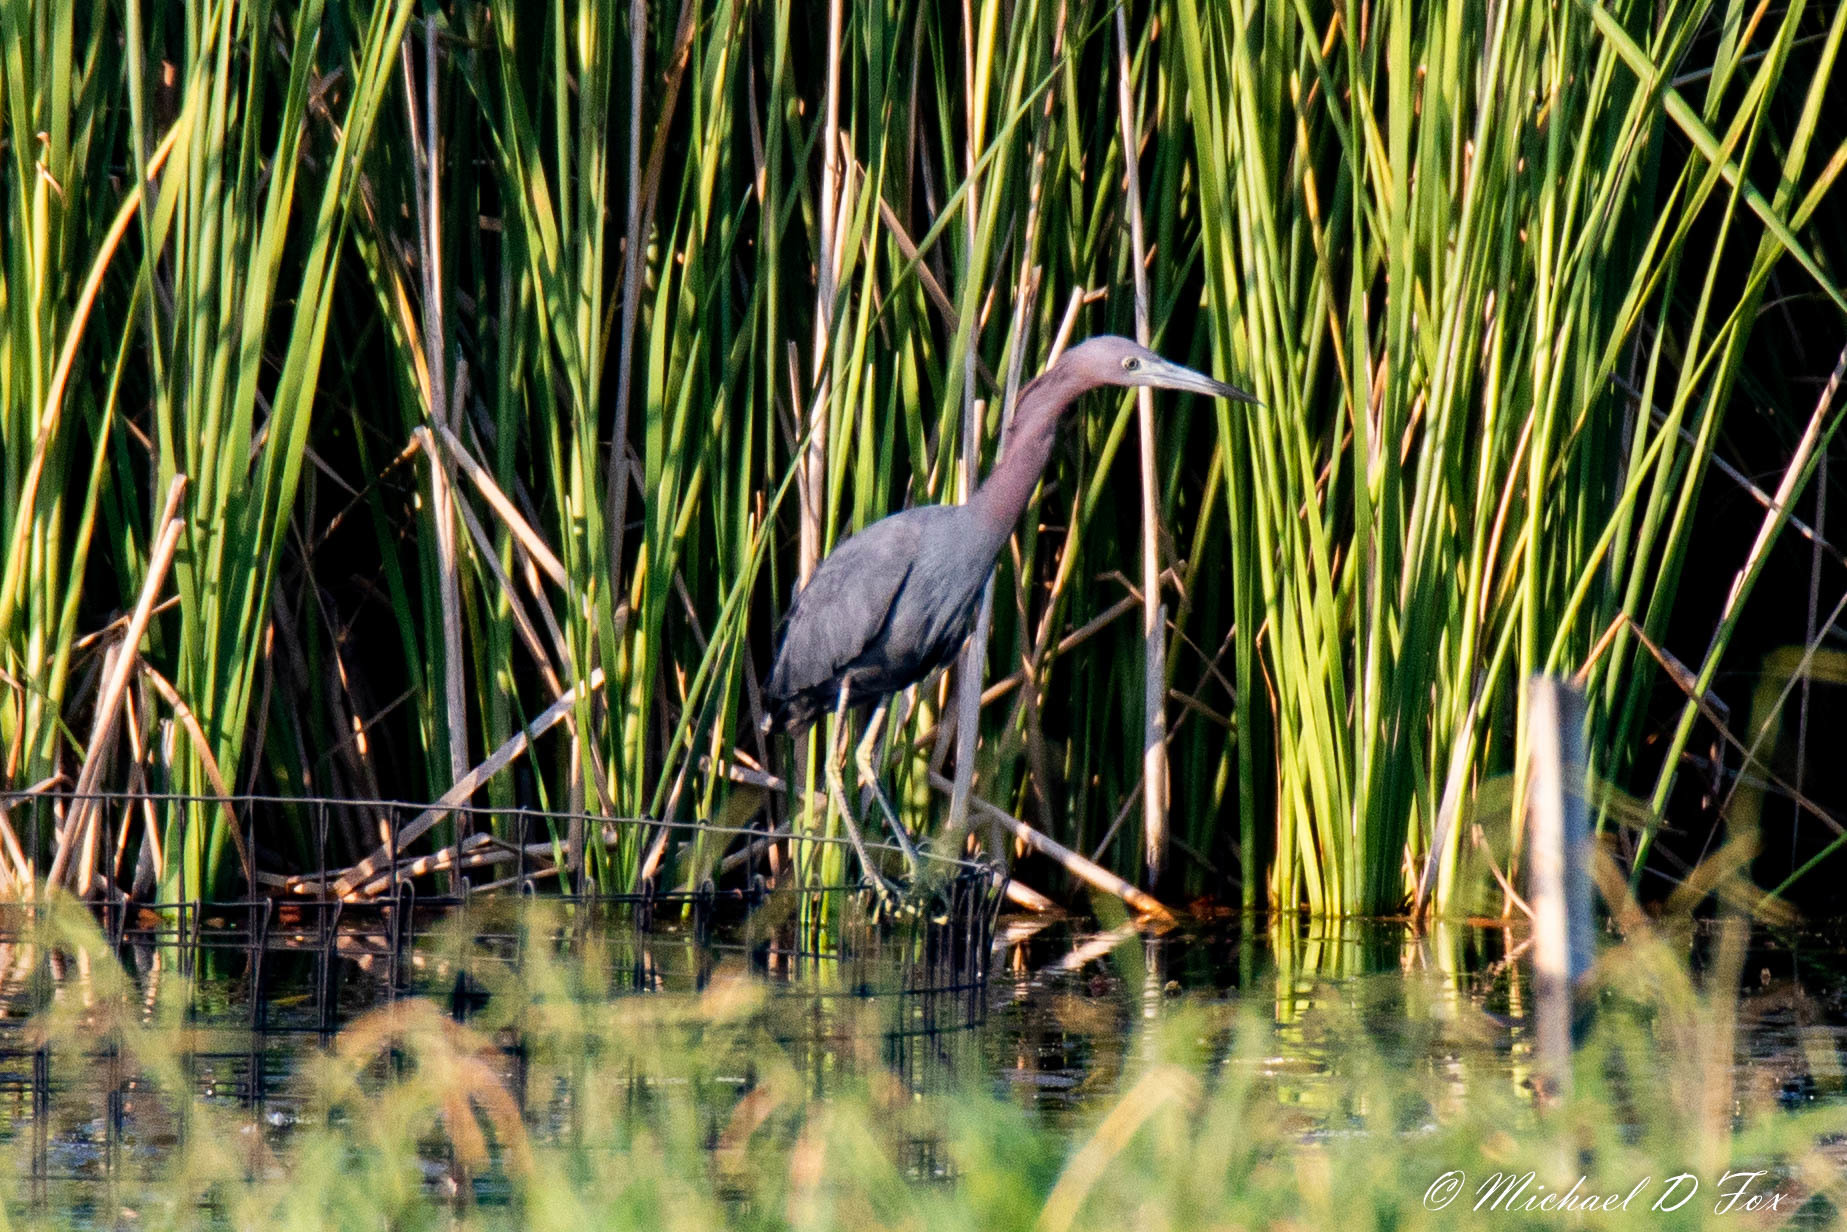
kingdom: Animalia
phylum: Chordata
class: Aves
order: Pelecaniformes
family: Ardeidae
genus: Egretta
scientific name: Egretta caerulea
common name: Little blue heron
